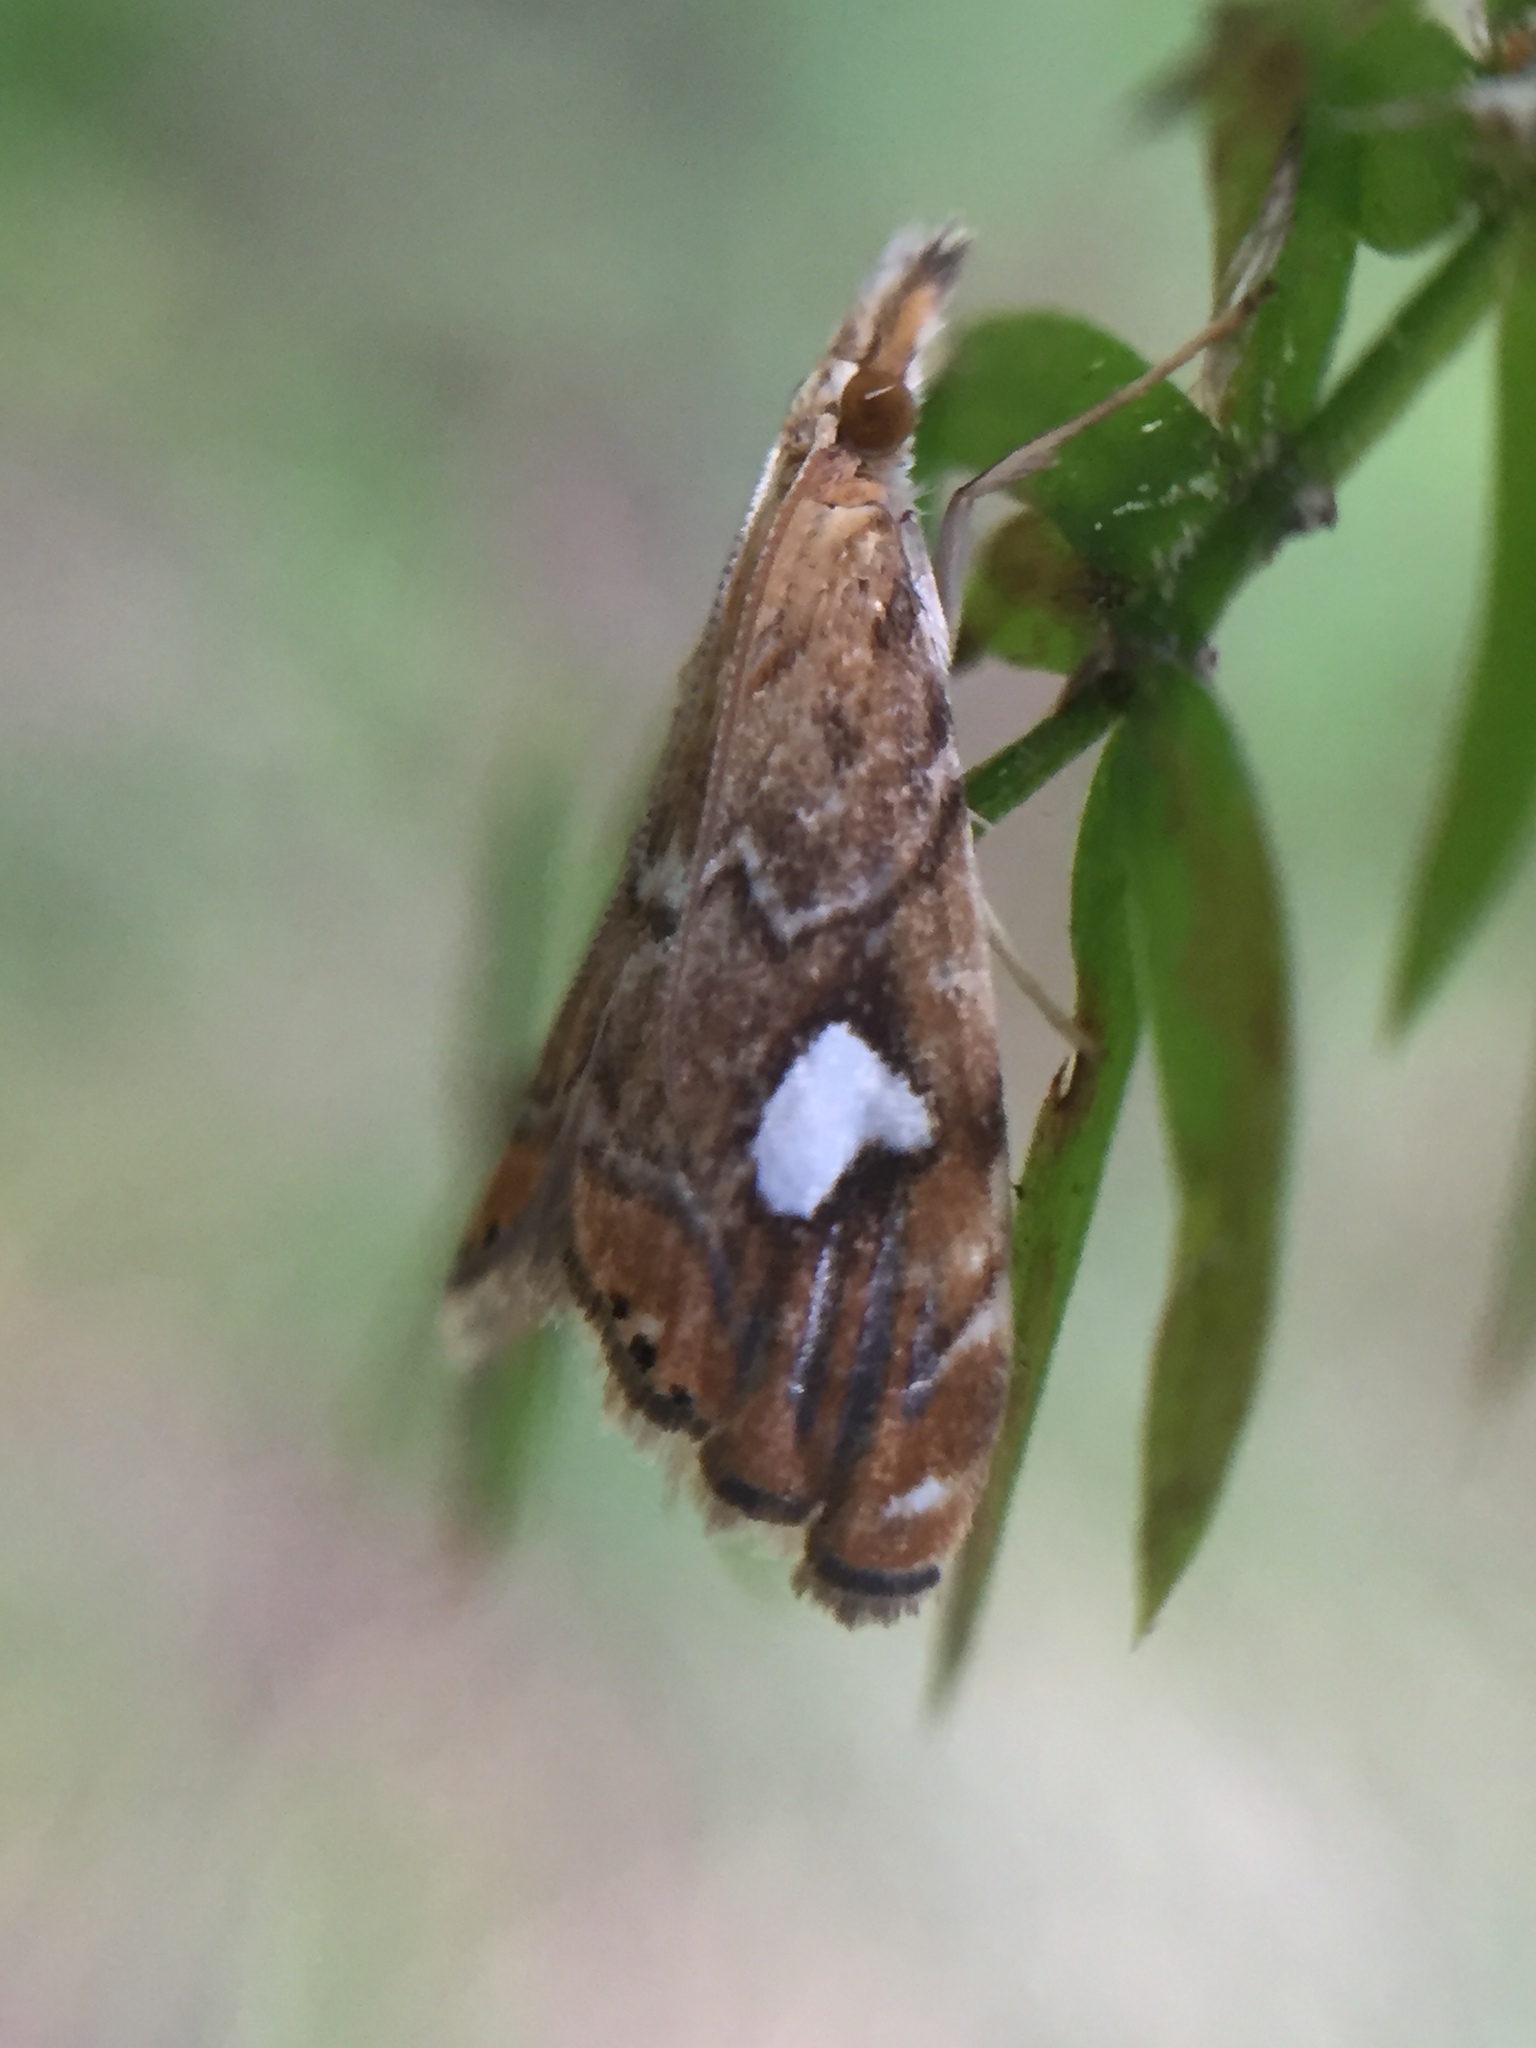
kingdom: Animalia
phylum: Arthropoda
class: Insecta
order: Lepidoptera
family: Crambidae
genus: Glaucocharis
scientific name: Glaucocharis leucoxantha
